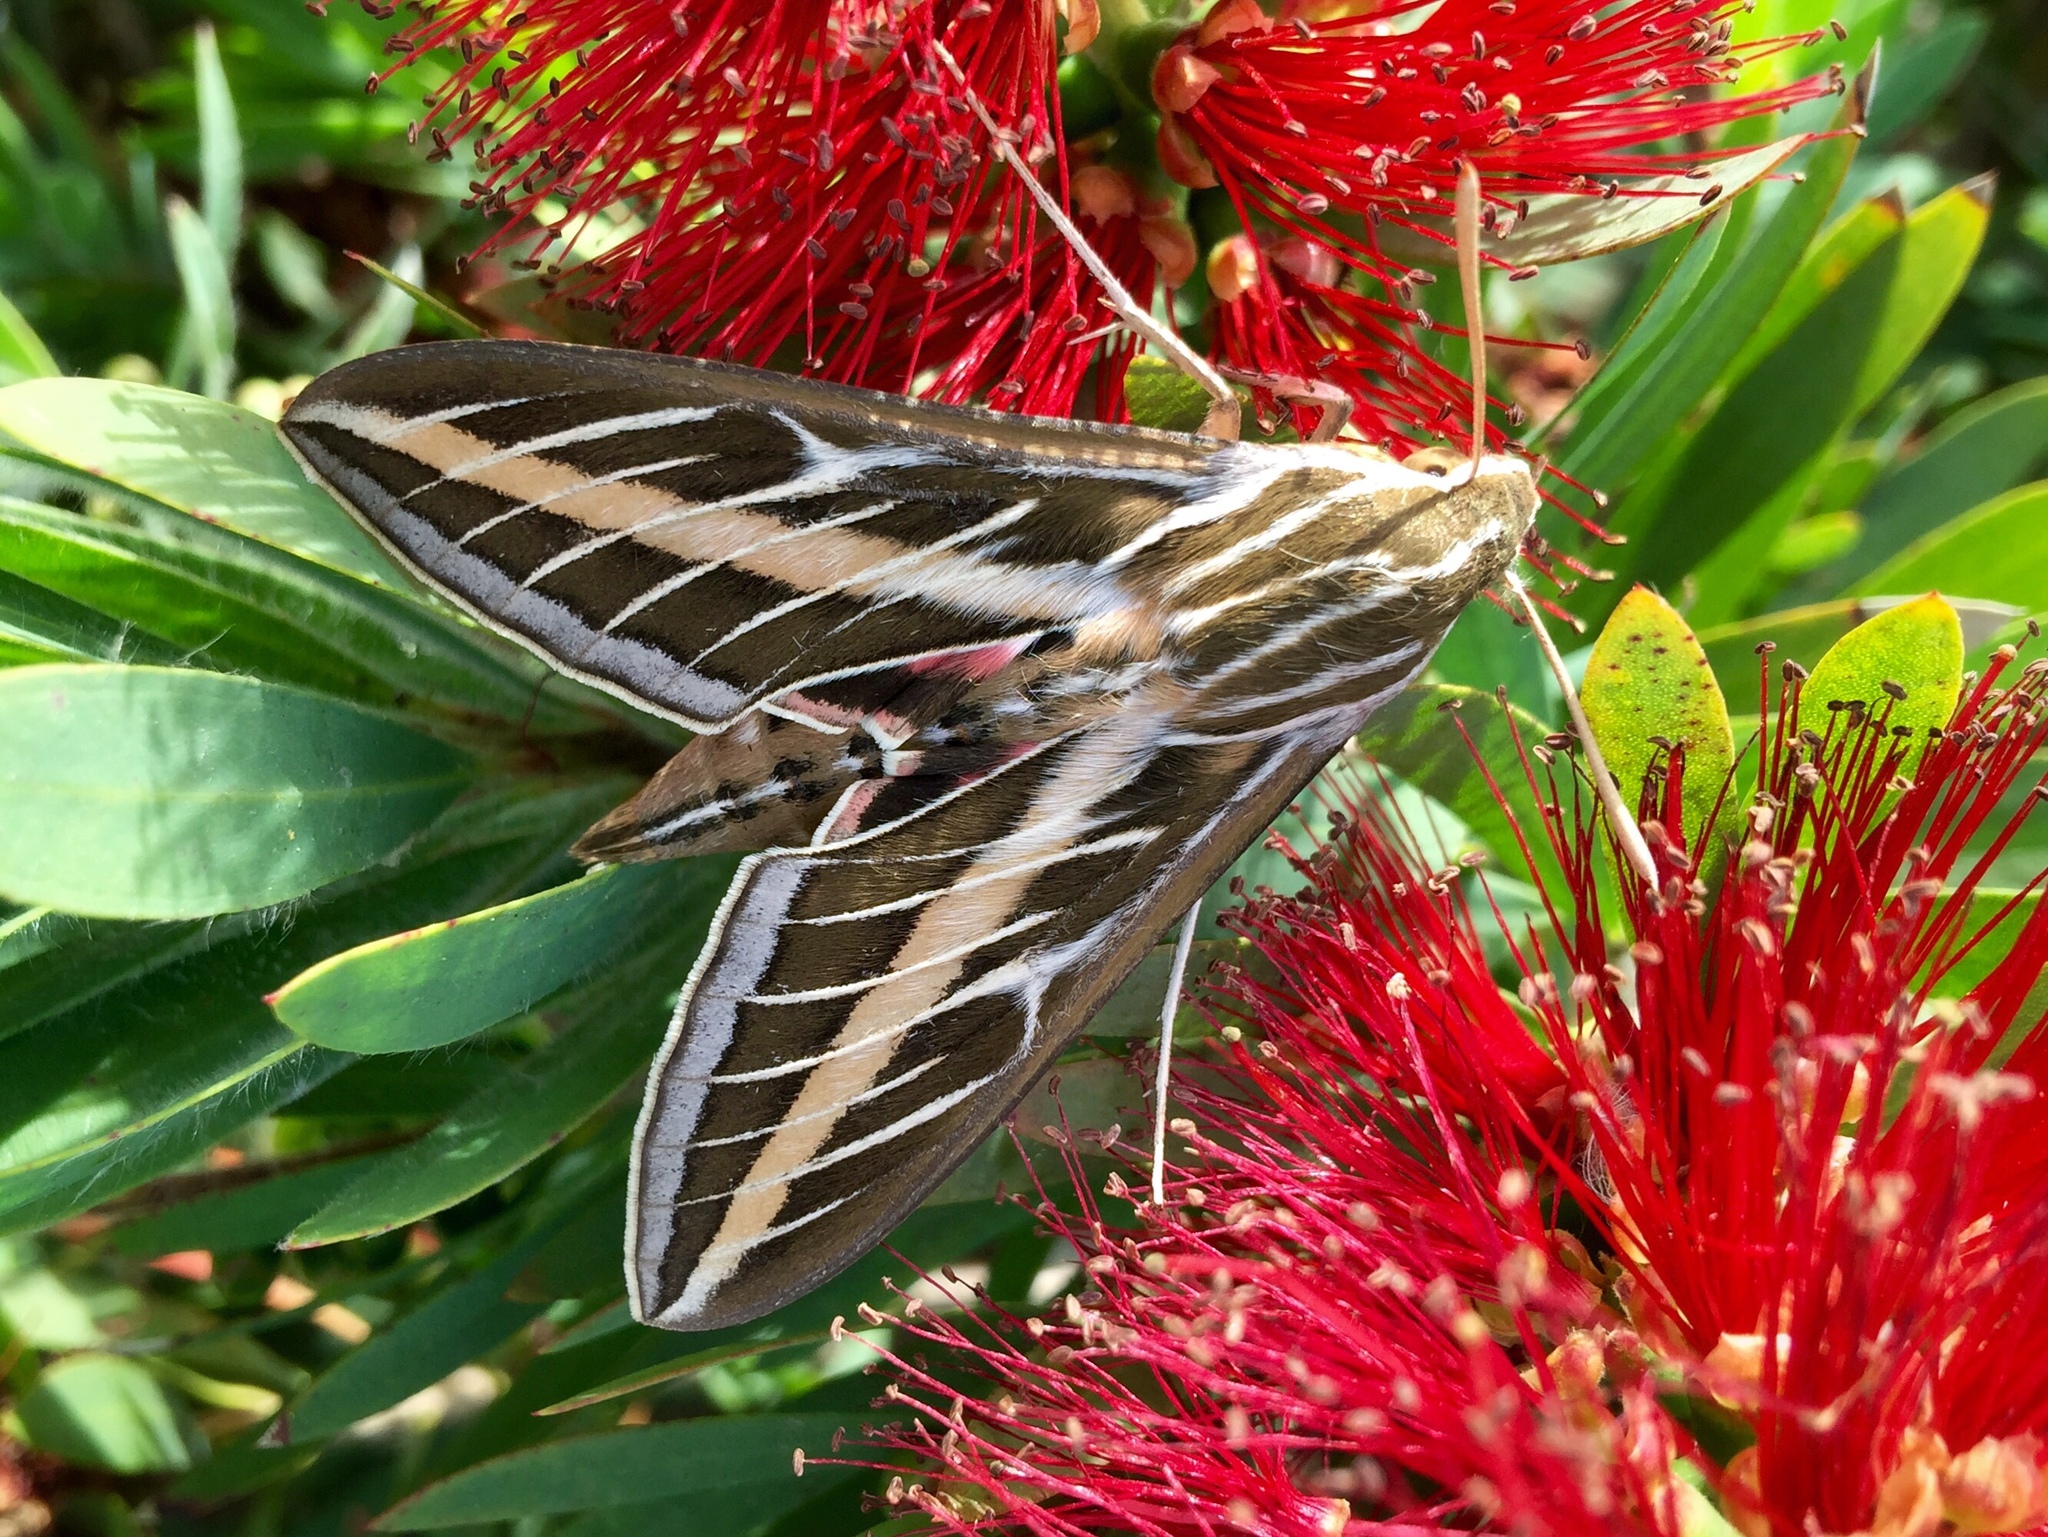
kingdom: Animalia
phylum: Arthropoda
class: Insecta
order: Lepidoptera
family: Sphingidae
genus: Hyles
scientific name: Hyles lineata
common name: White-lined sphinx
